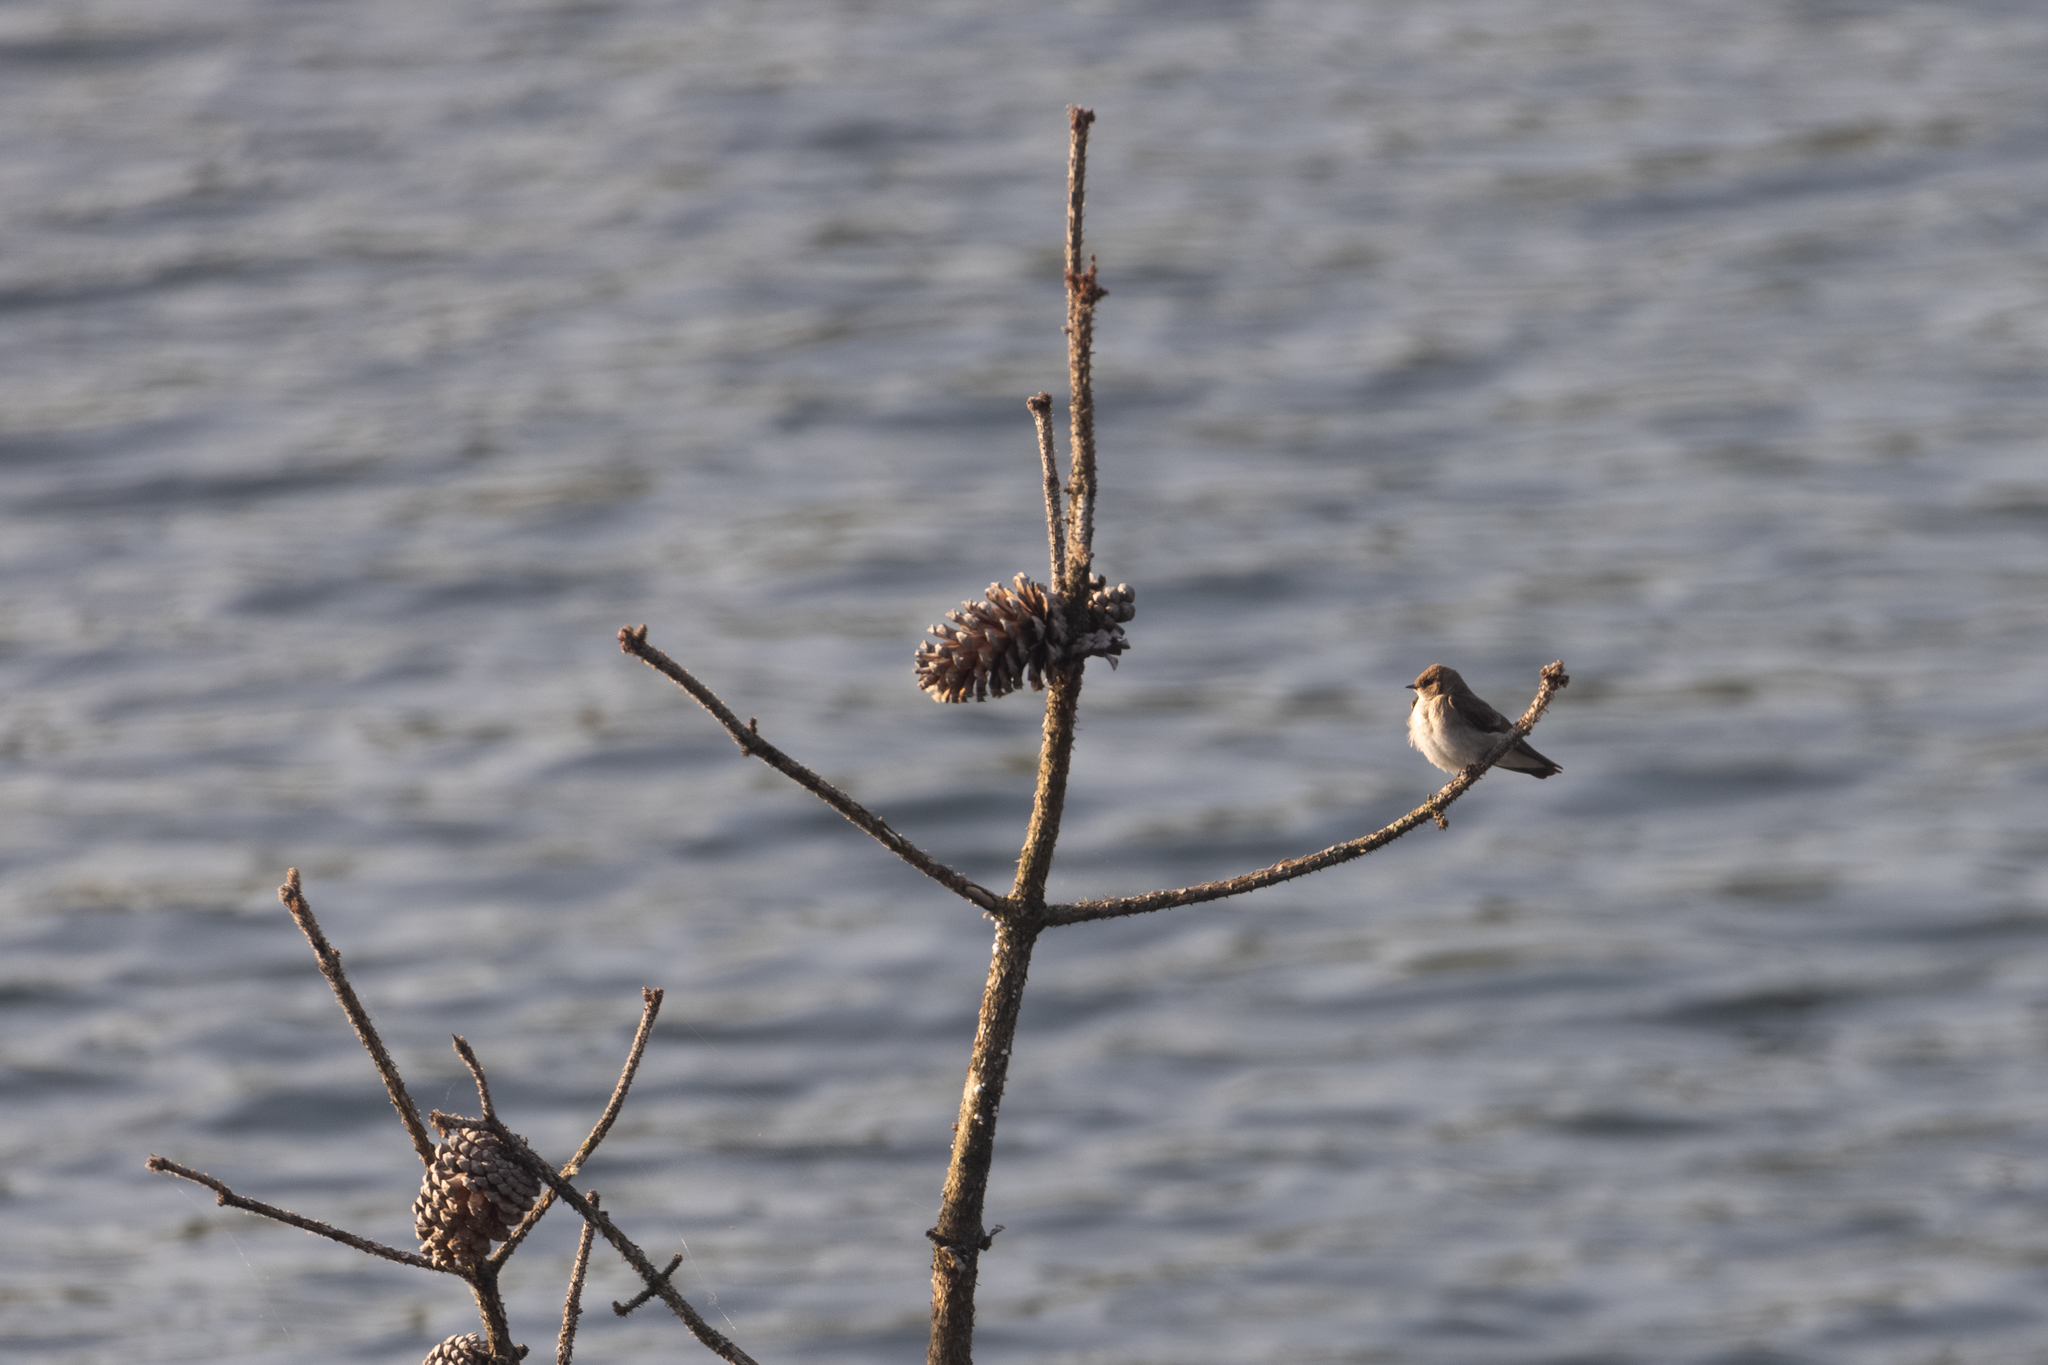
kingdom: Animalia
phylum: Chordata
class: Aves
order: Passeriformes
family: Hirundinidae
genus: Stelgidopteryx
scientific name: Stelgidopteryx serripennis
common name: Northern rough-winged swallow
